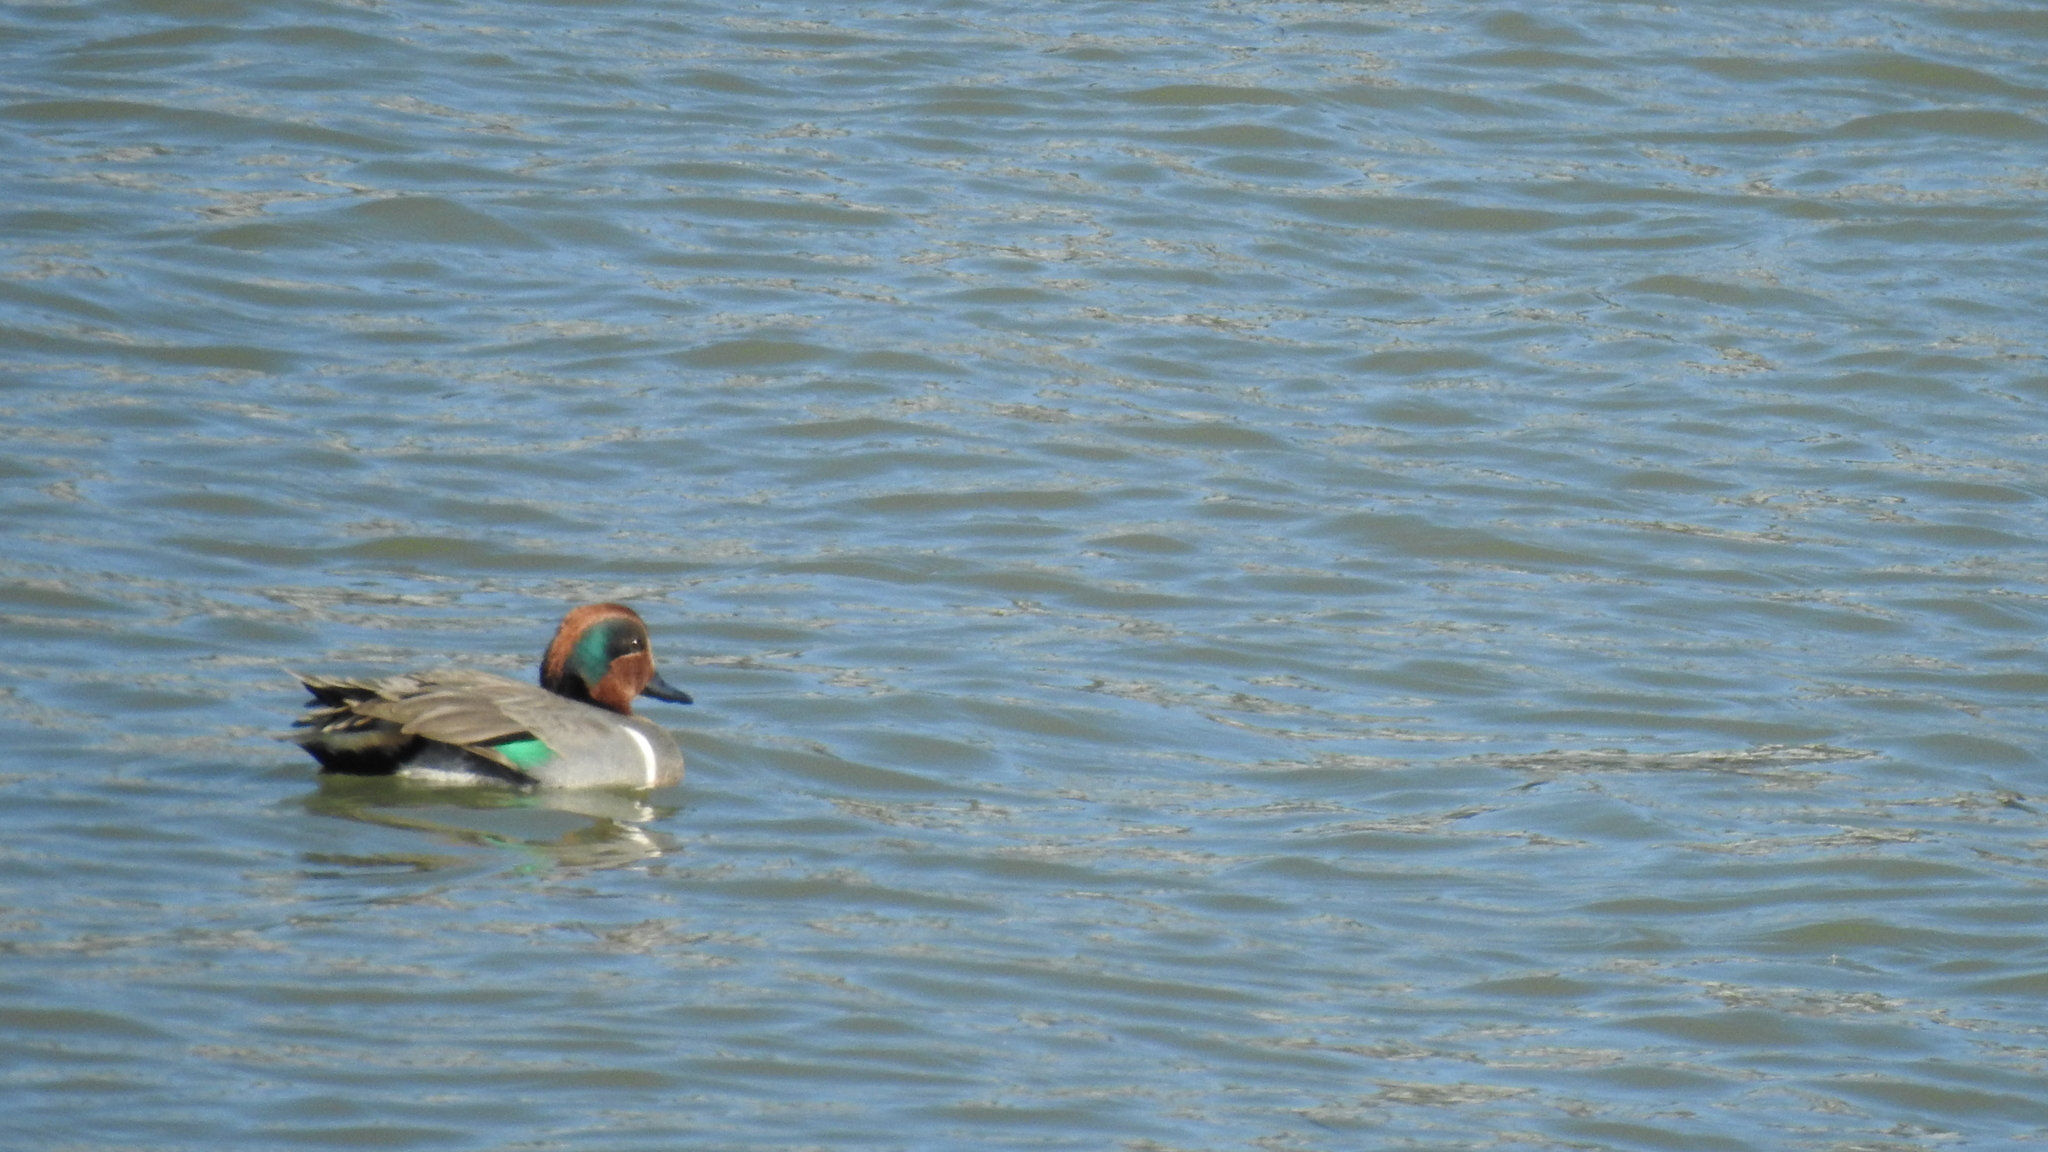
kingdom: Animalia
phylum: Chordata
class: Aves
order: Anseriformes
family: Anatidae
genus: Anas
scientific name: Anas crecca
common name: Eurasian teal
